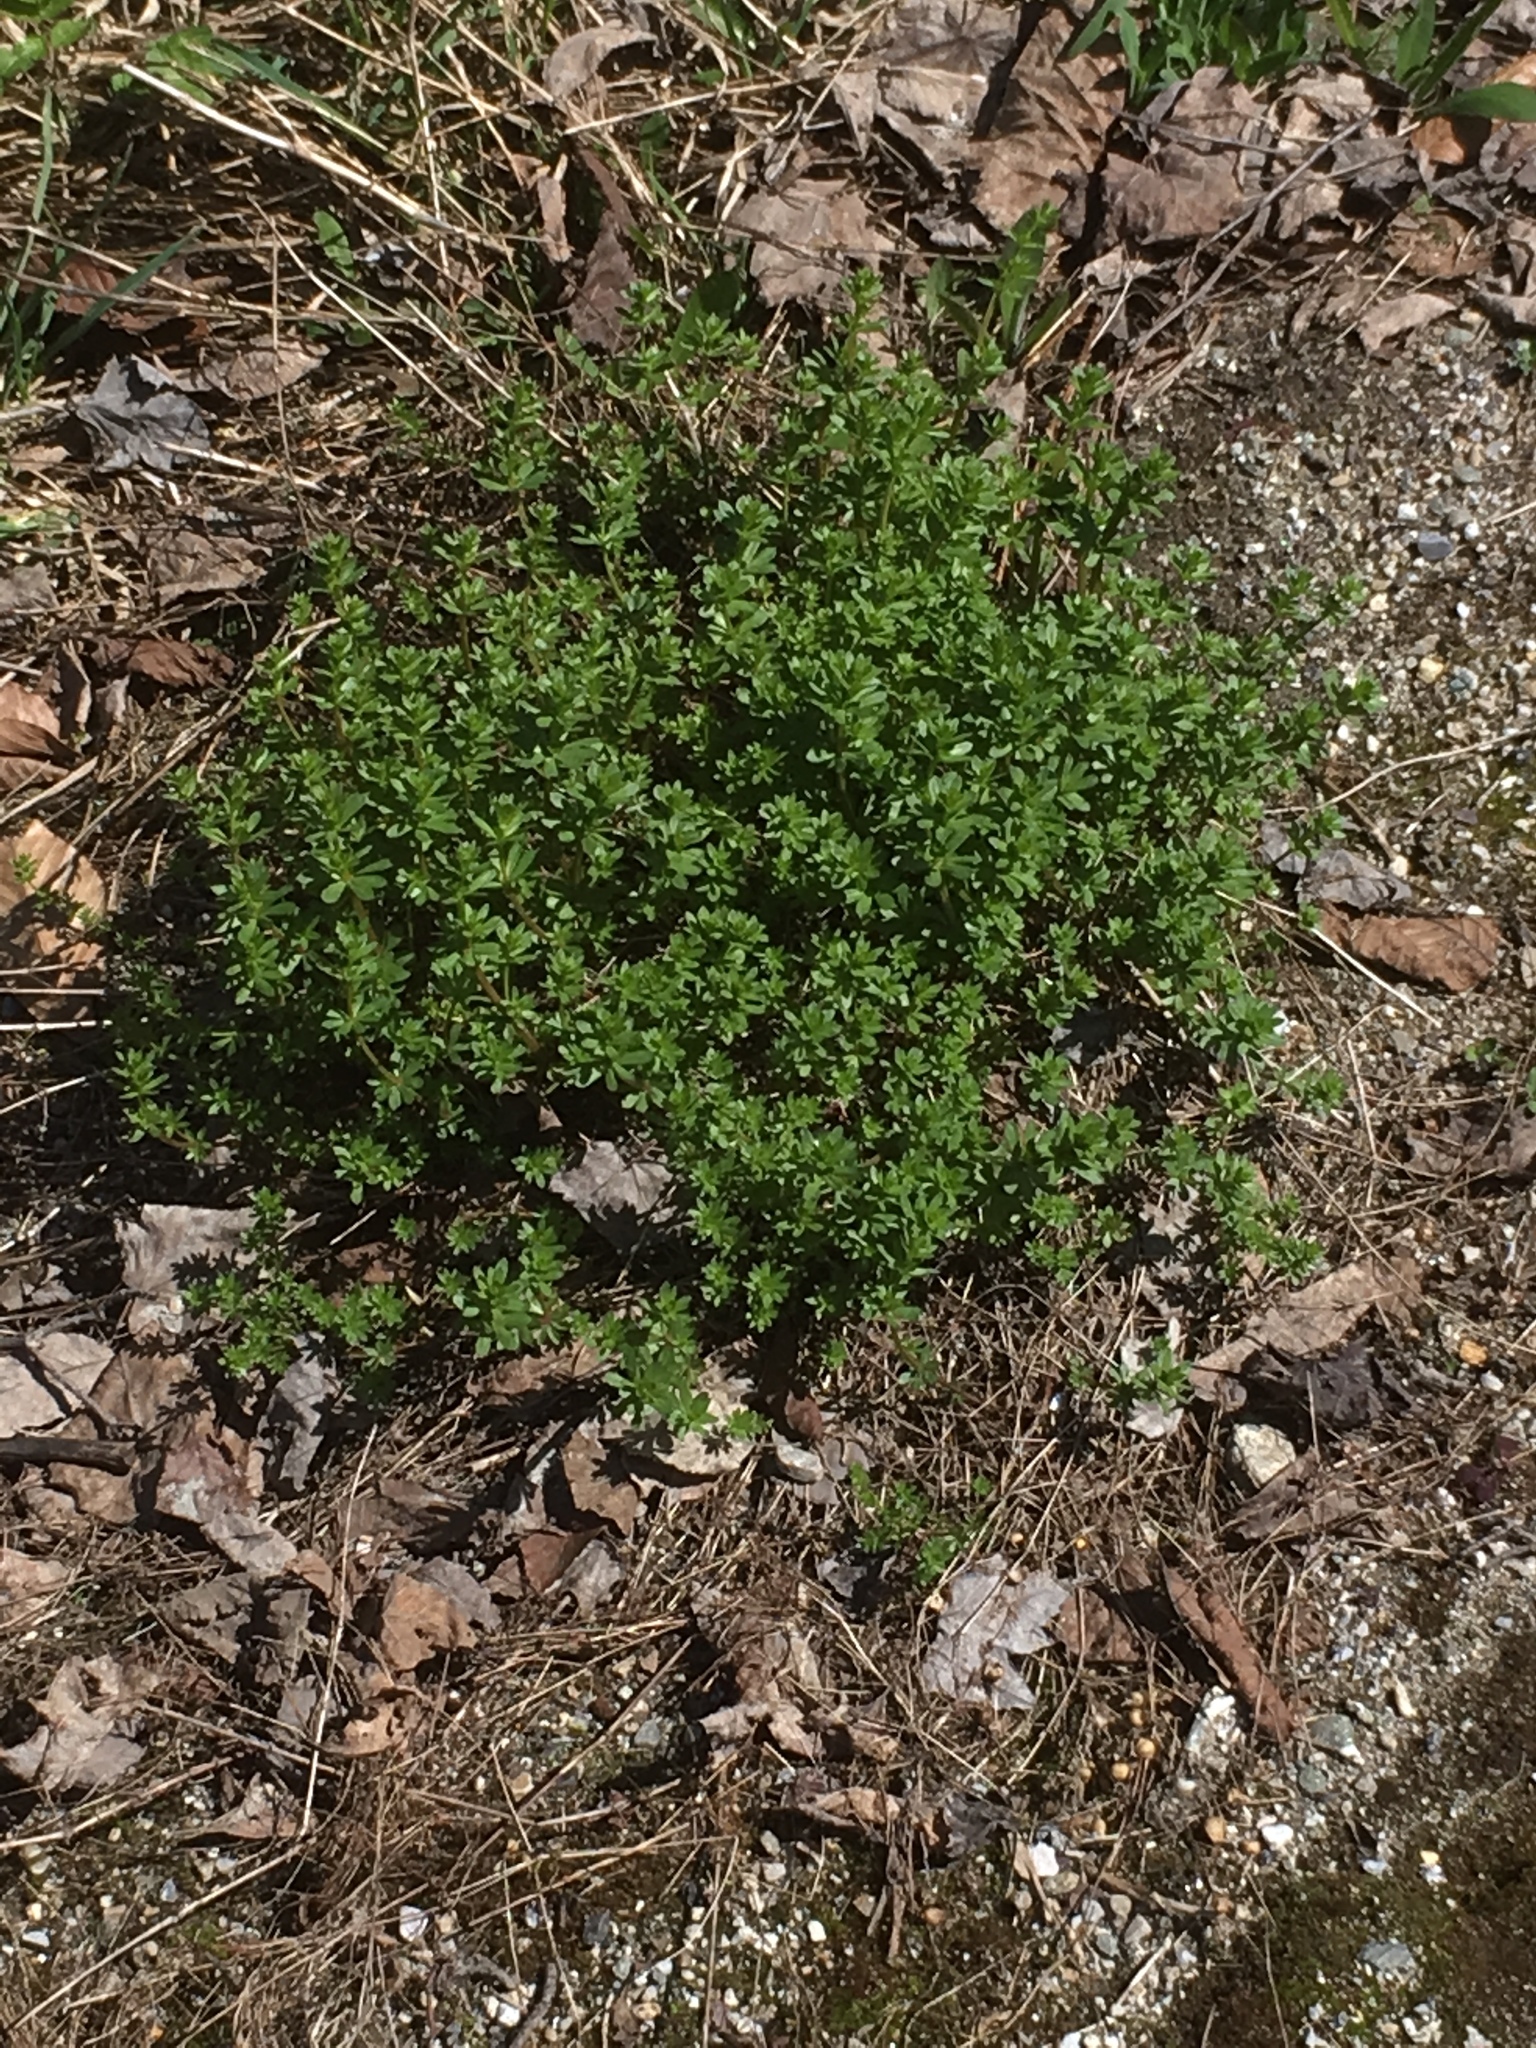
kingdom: Plantae
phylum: Tracheophyta
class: Magnoliopsida
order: Gentianales
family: Rubiaceae
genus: Galium
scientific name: Galium mollugo
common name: Hedge bedstraw
